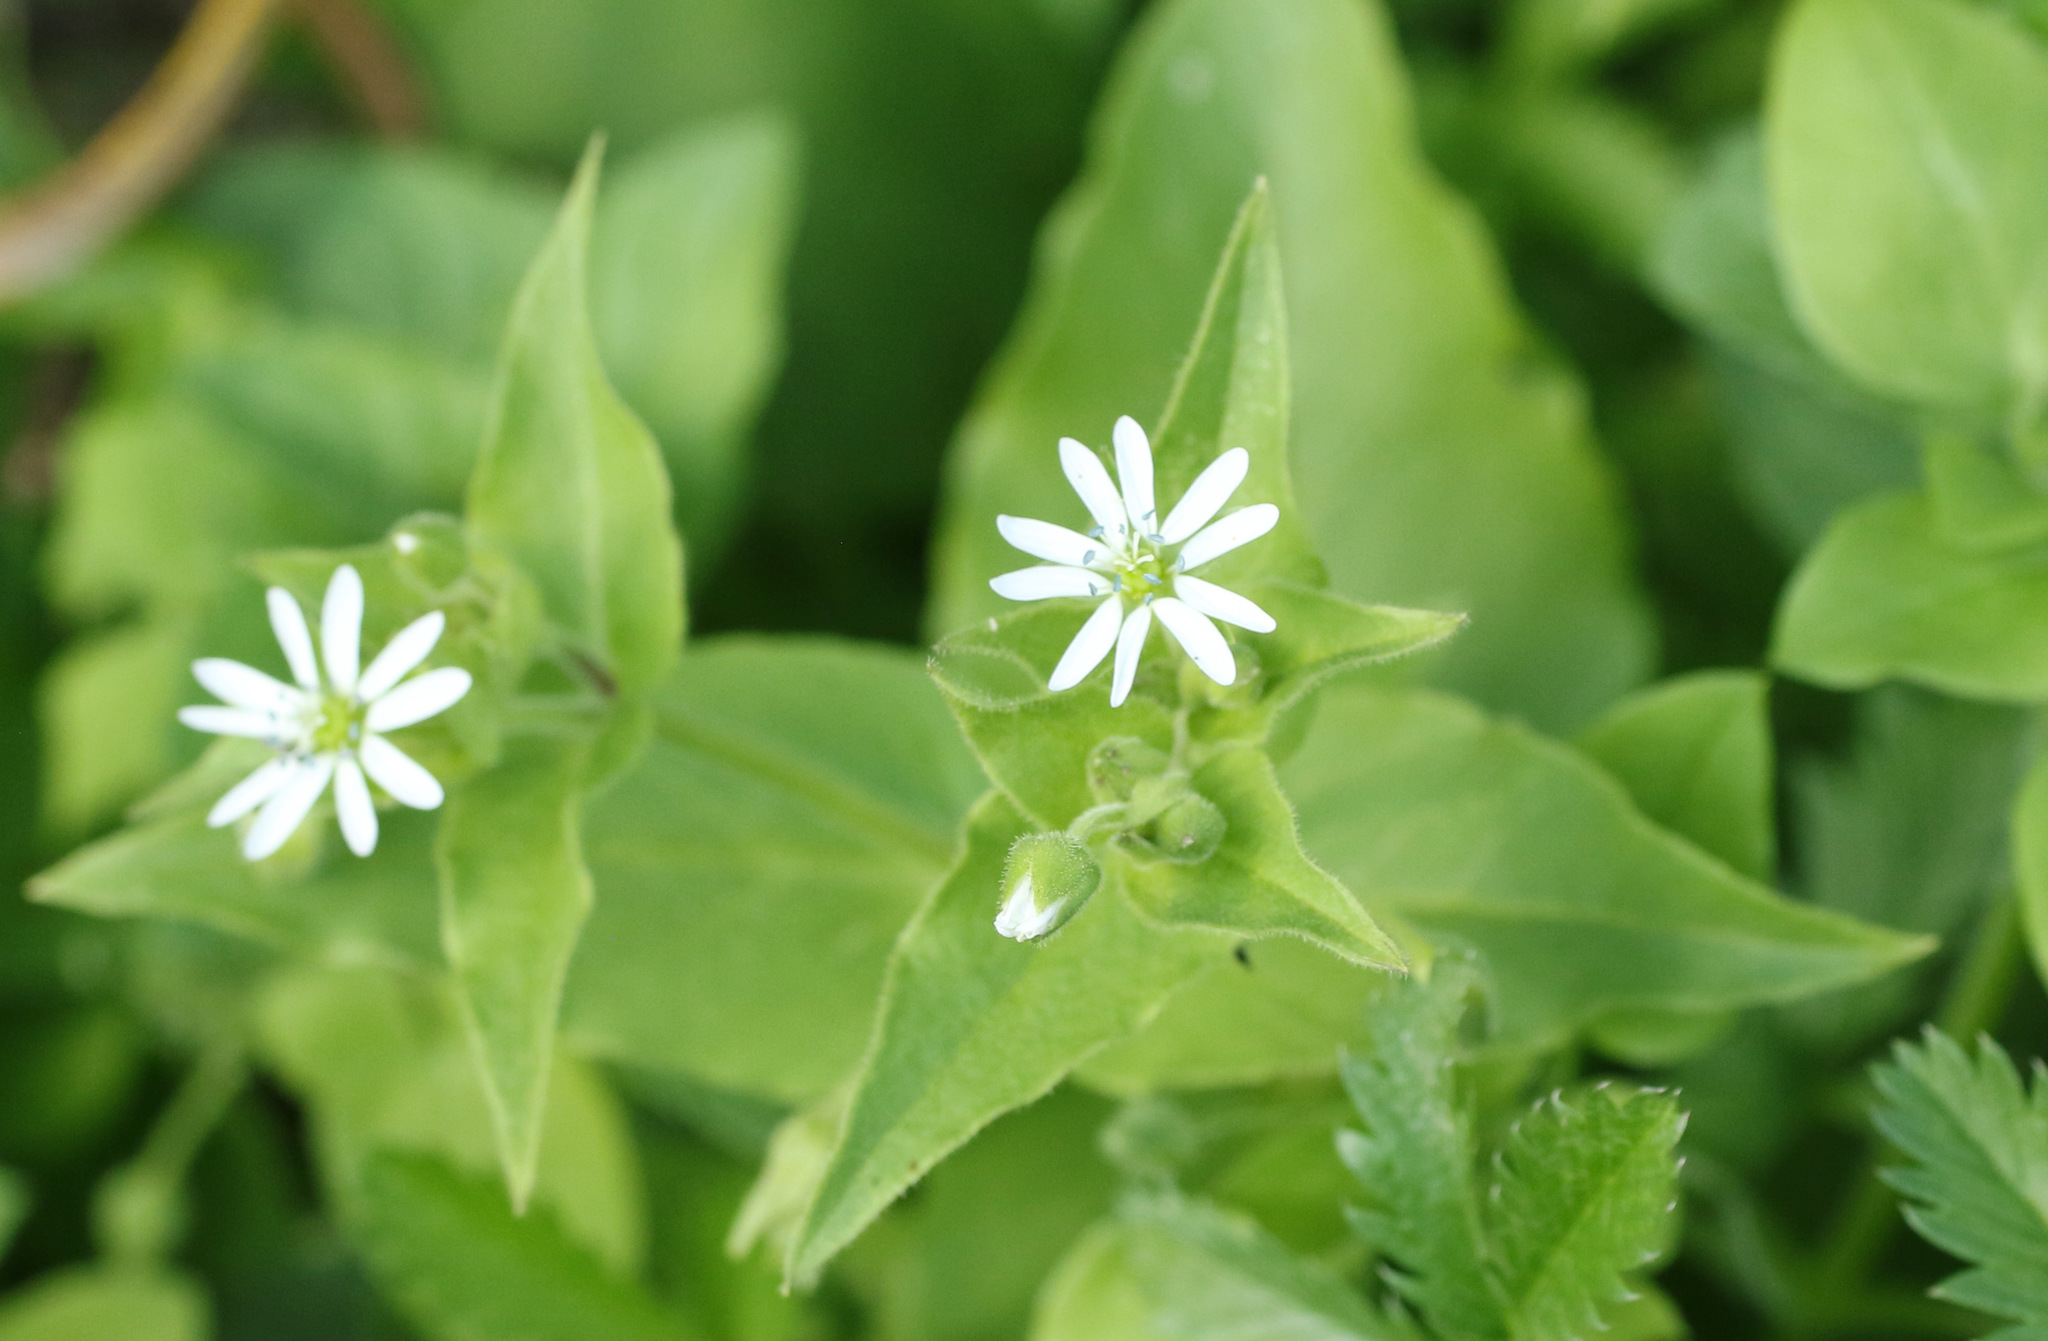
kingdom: Plantae
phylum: Tracheophyta
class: Magnoliopsida
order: Caryophyllales
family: Caryophyllaceae
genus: Stellaria
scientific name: Stellaria aquatica
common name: Water chickweed
